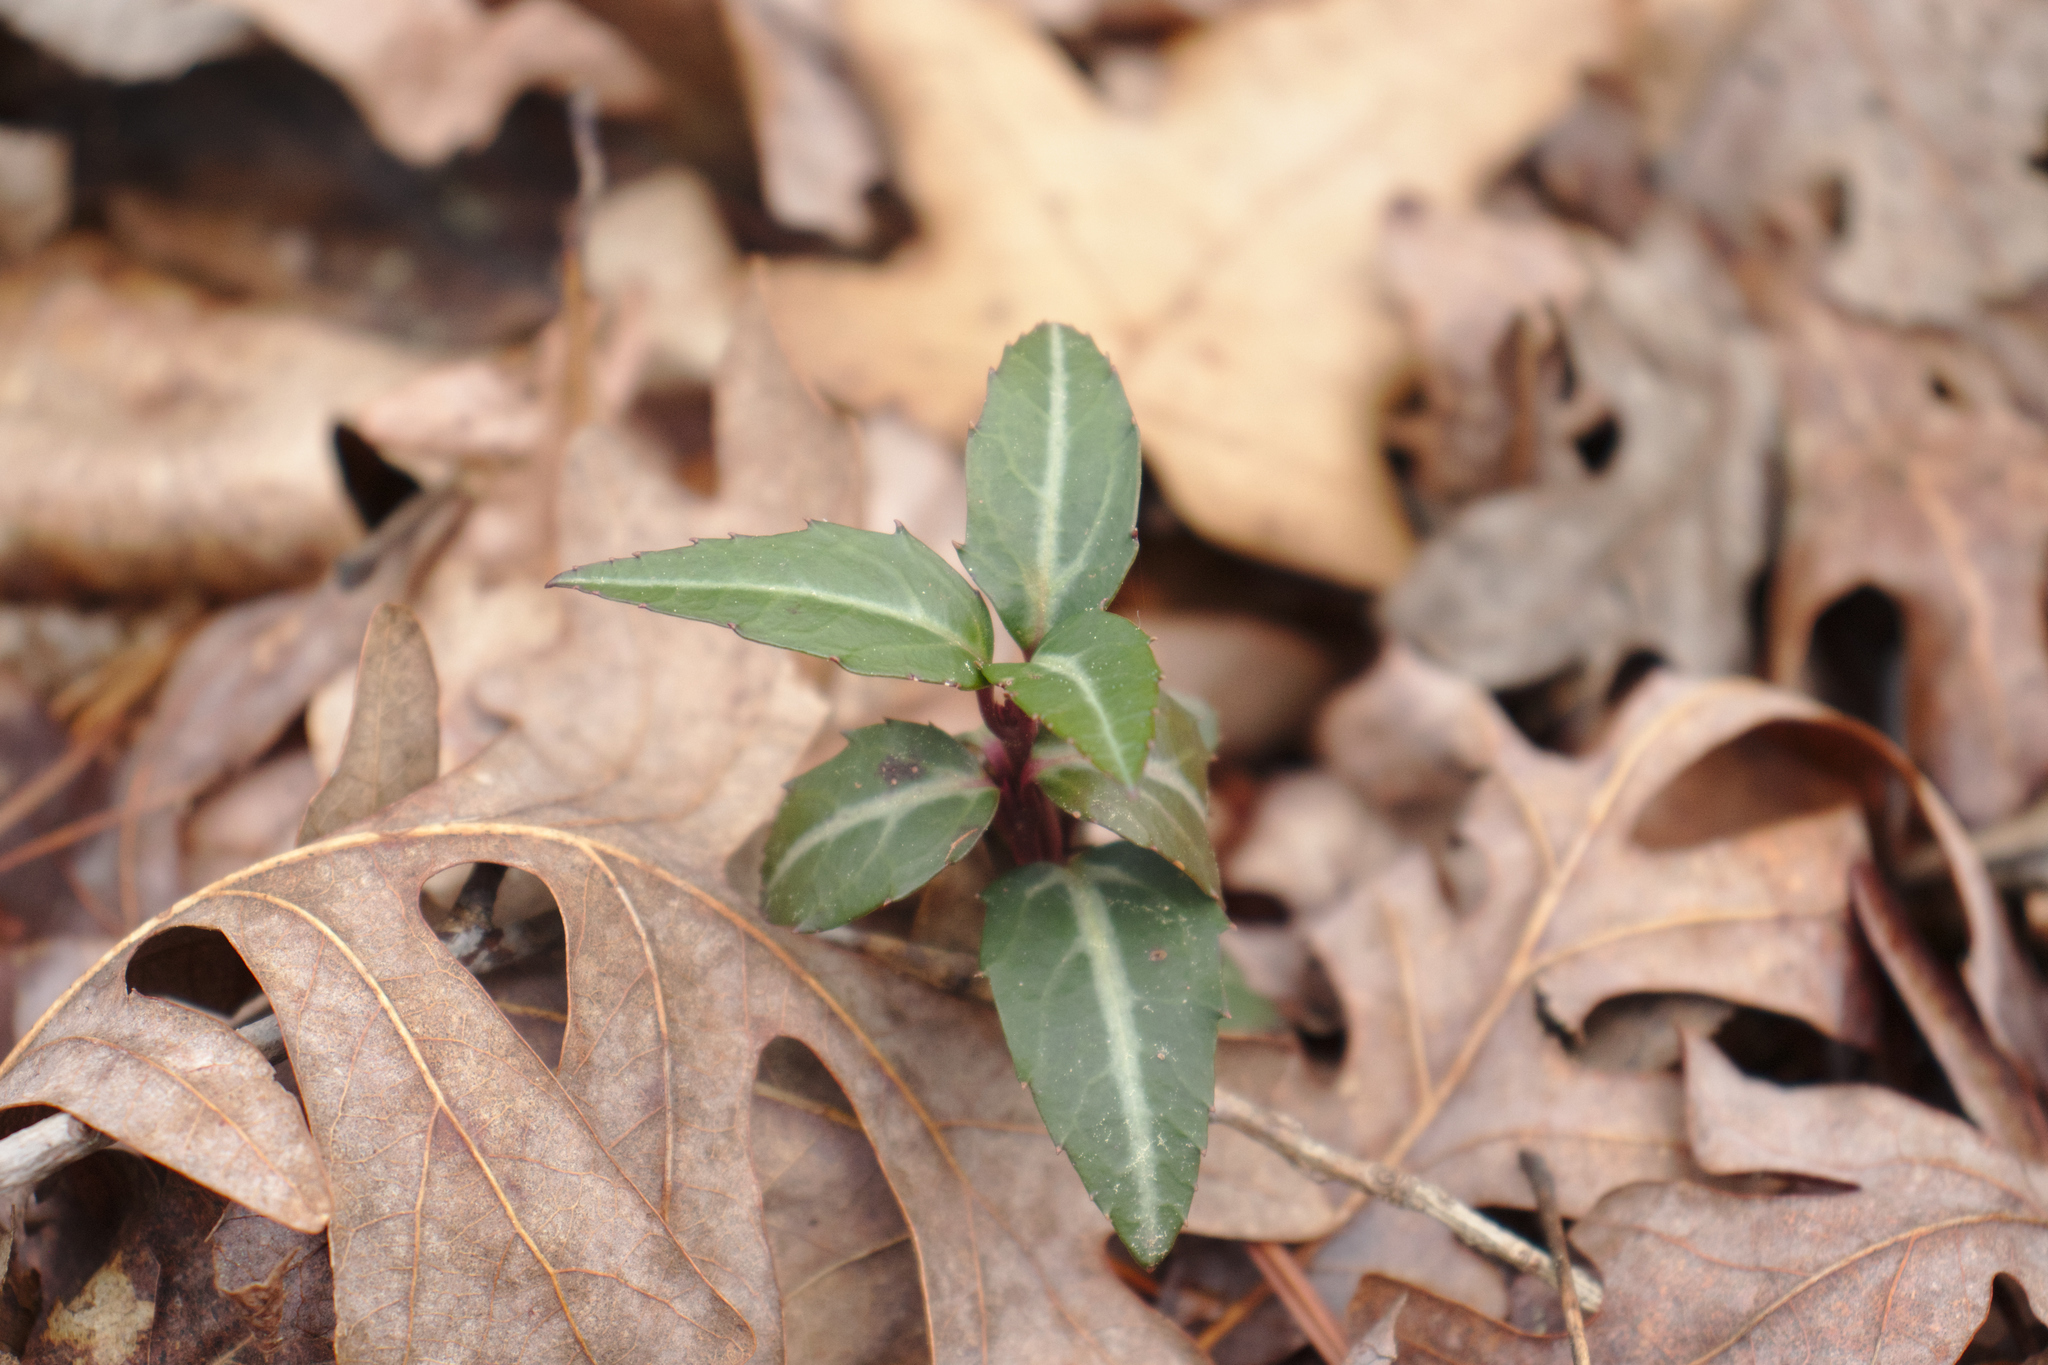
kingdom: Plantae
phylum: Tracheophyta
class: Magnoliopsida
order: Ericales
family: Ericaceae
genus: Chimaphila
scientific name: Chimaphila maculata
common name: Spotted pipsissewa
